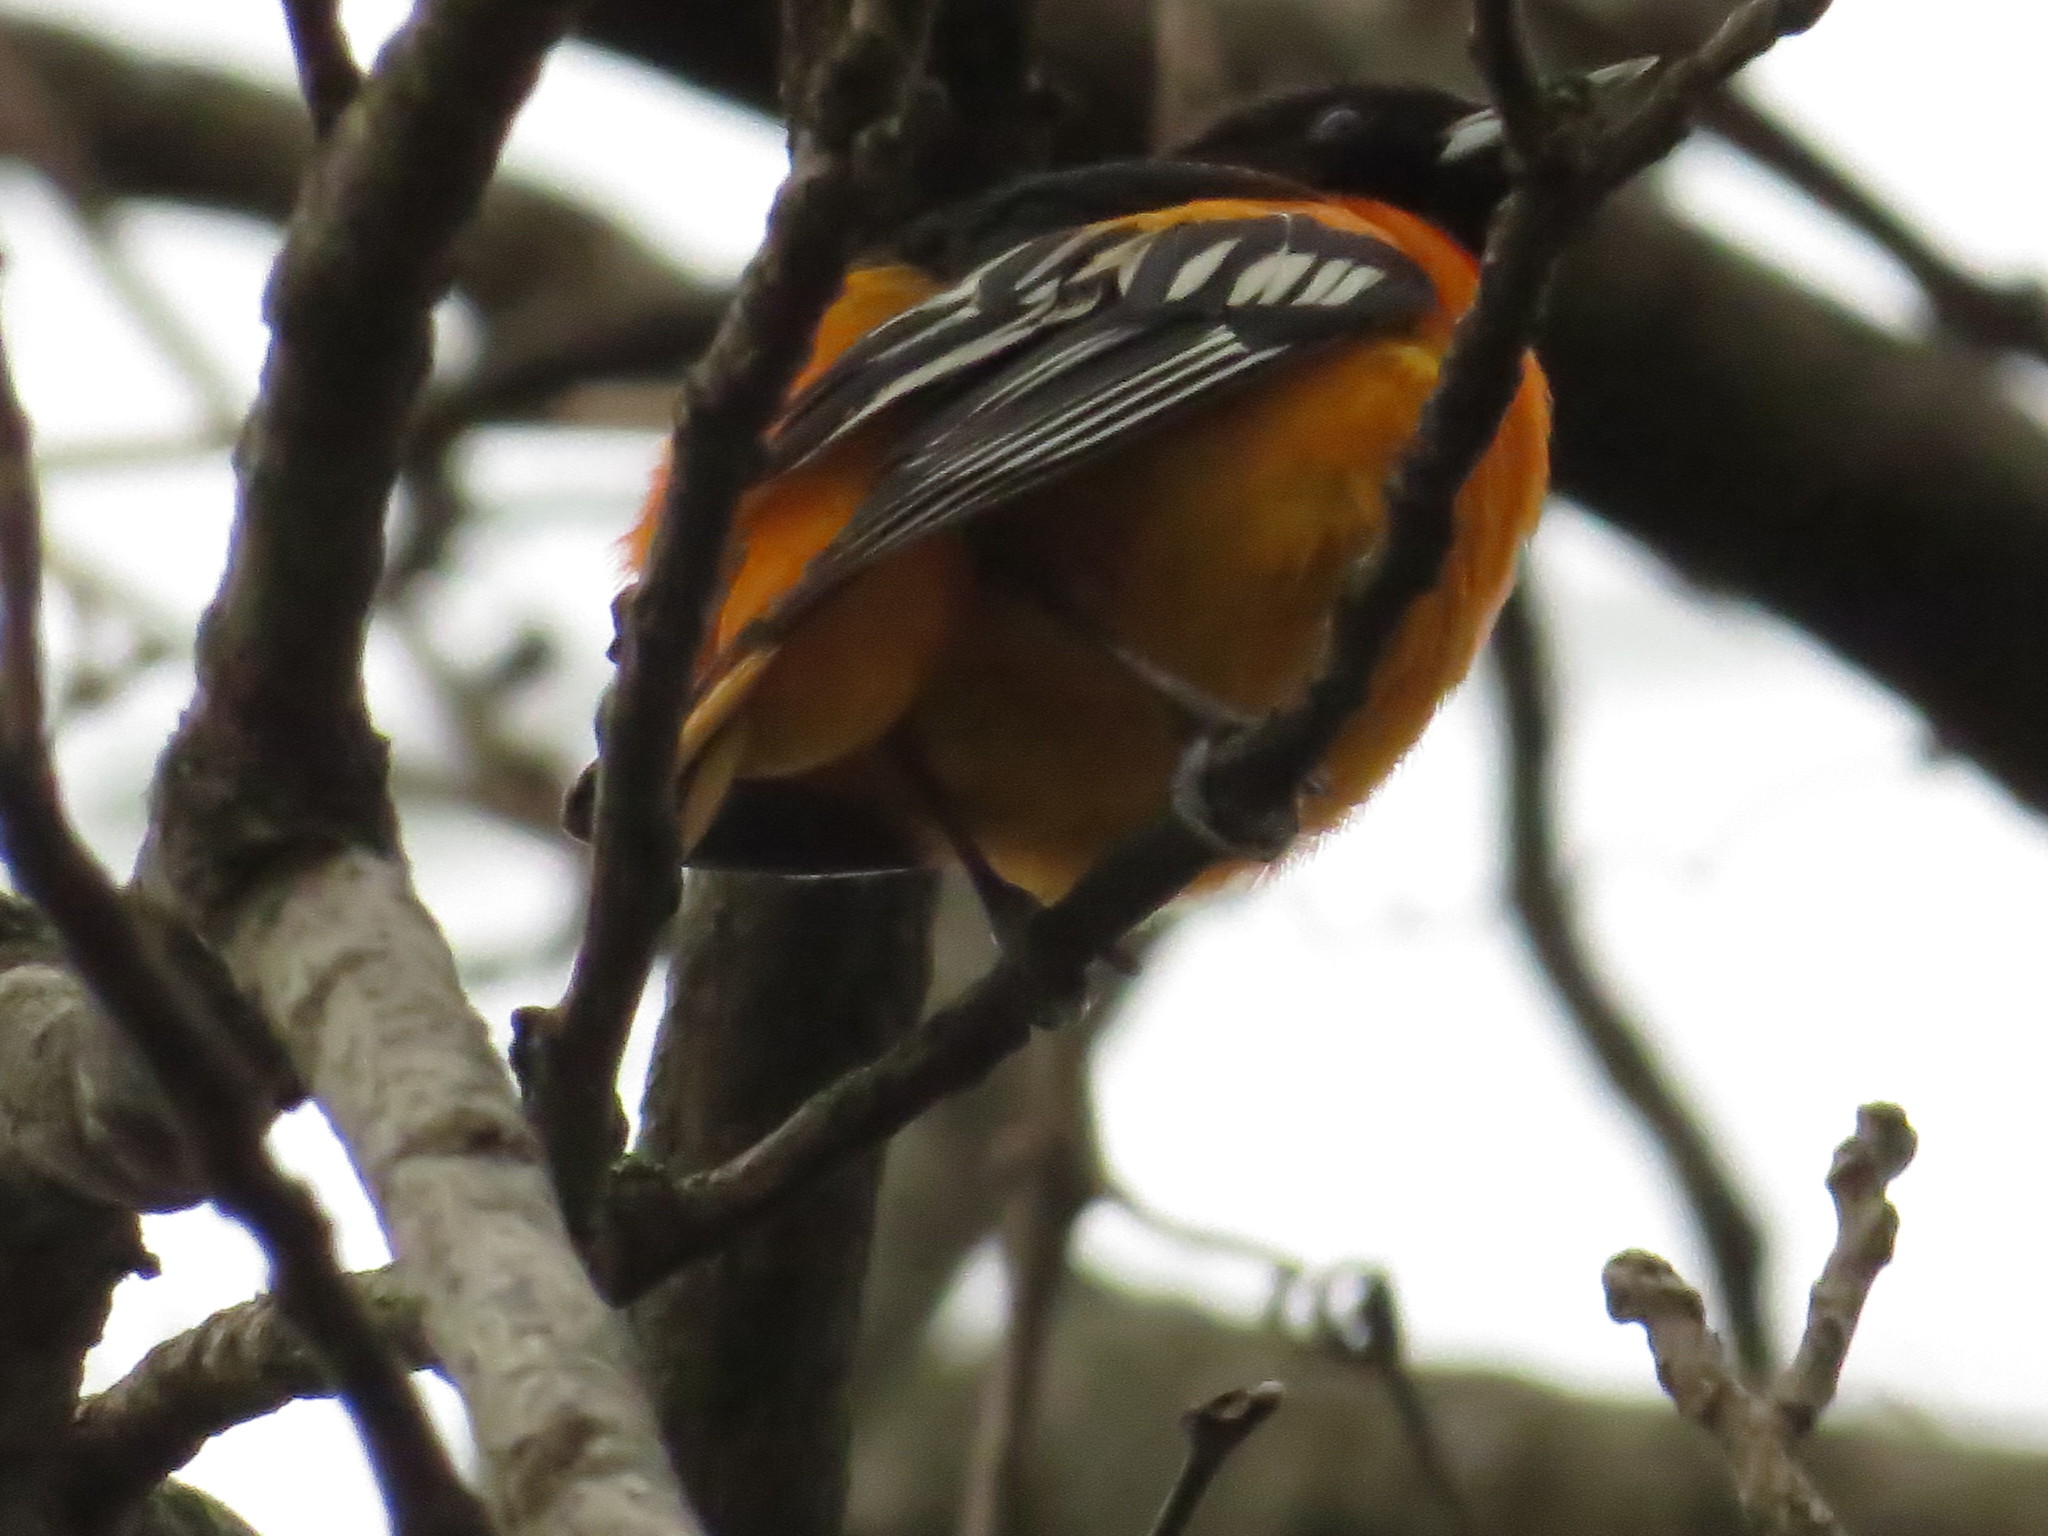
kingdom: Animalia
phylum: Chordata
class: Aves
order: Passeriformes
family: Icteridae
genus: Icterus
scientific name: Icterus galbula
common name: Baltimore oriole
